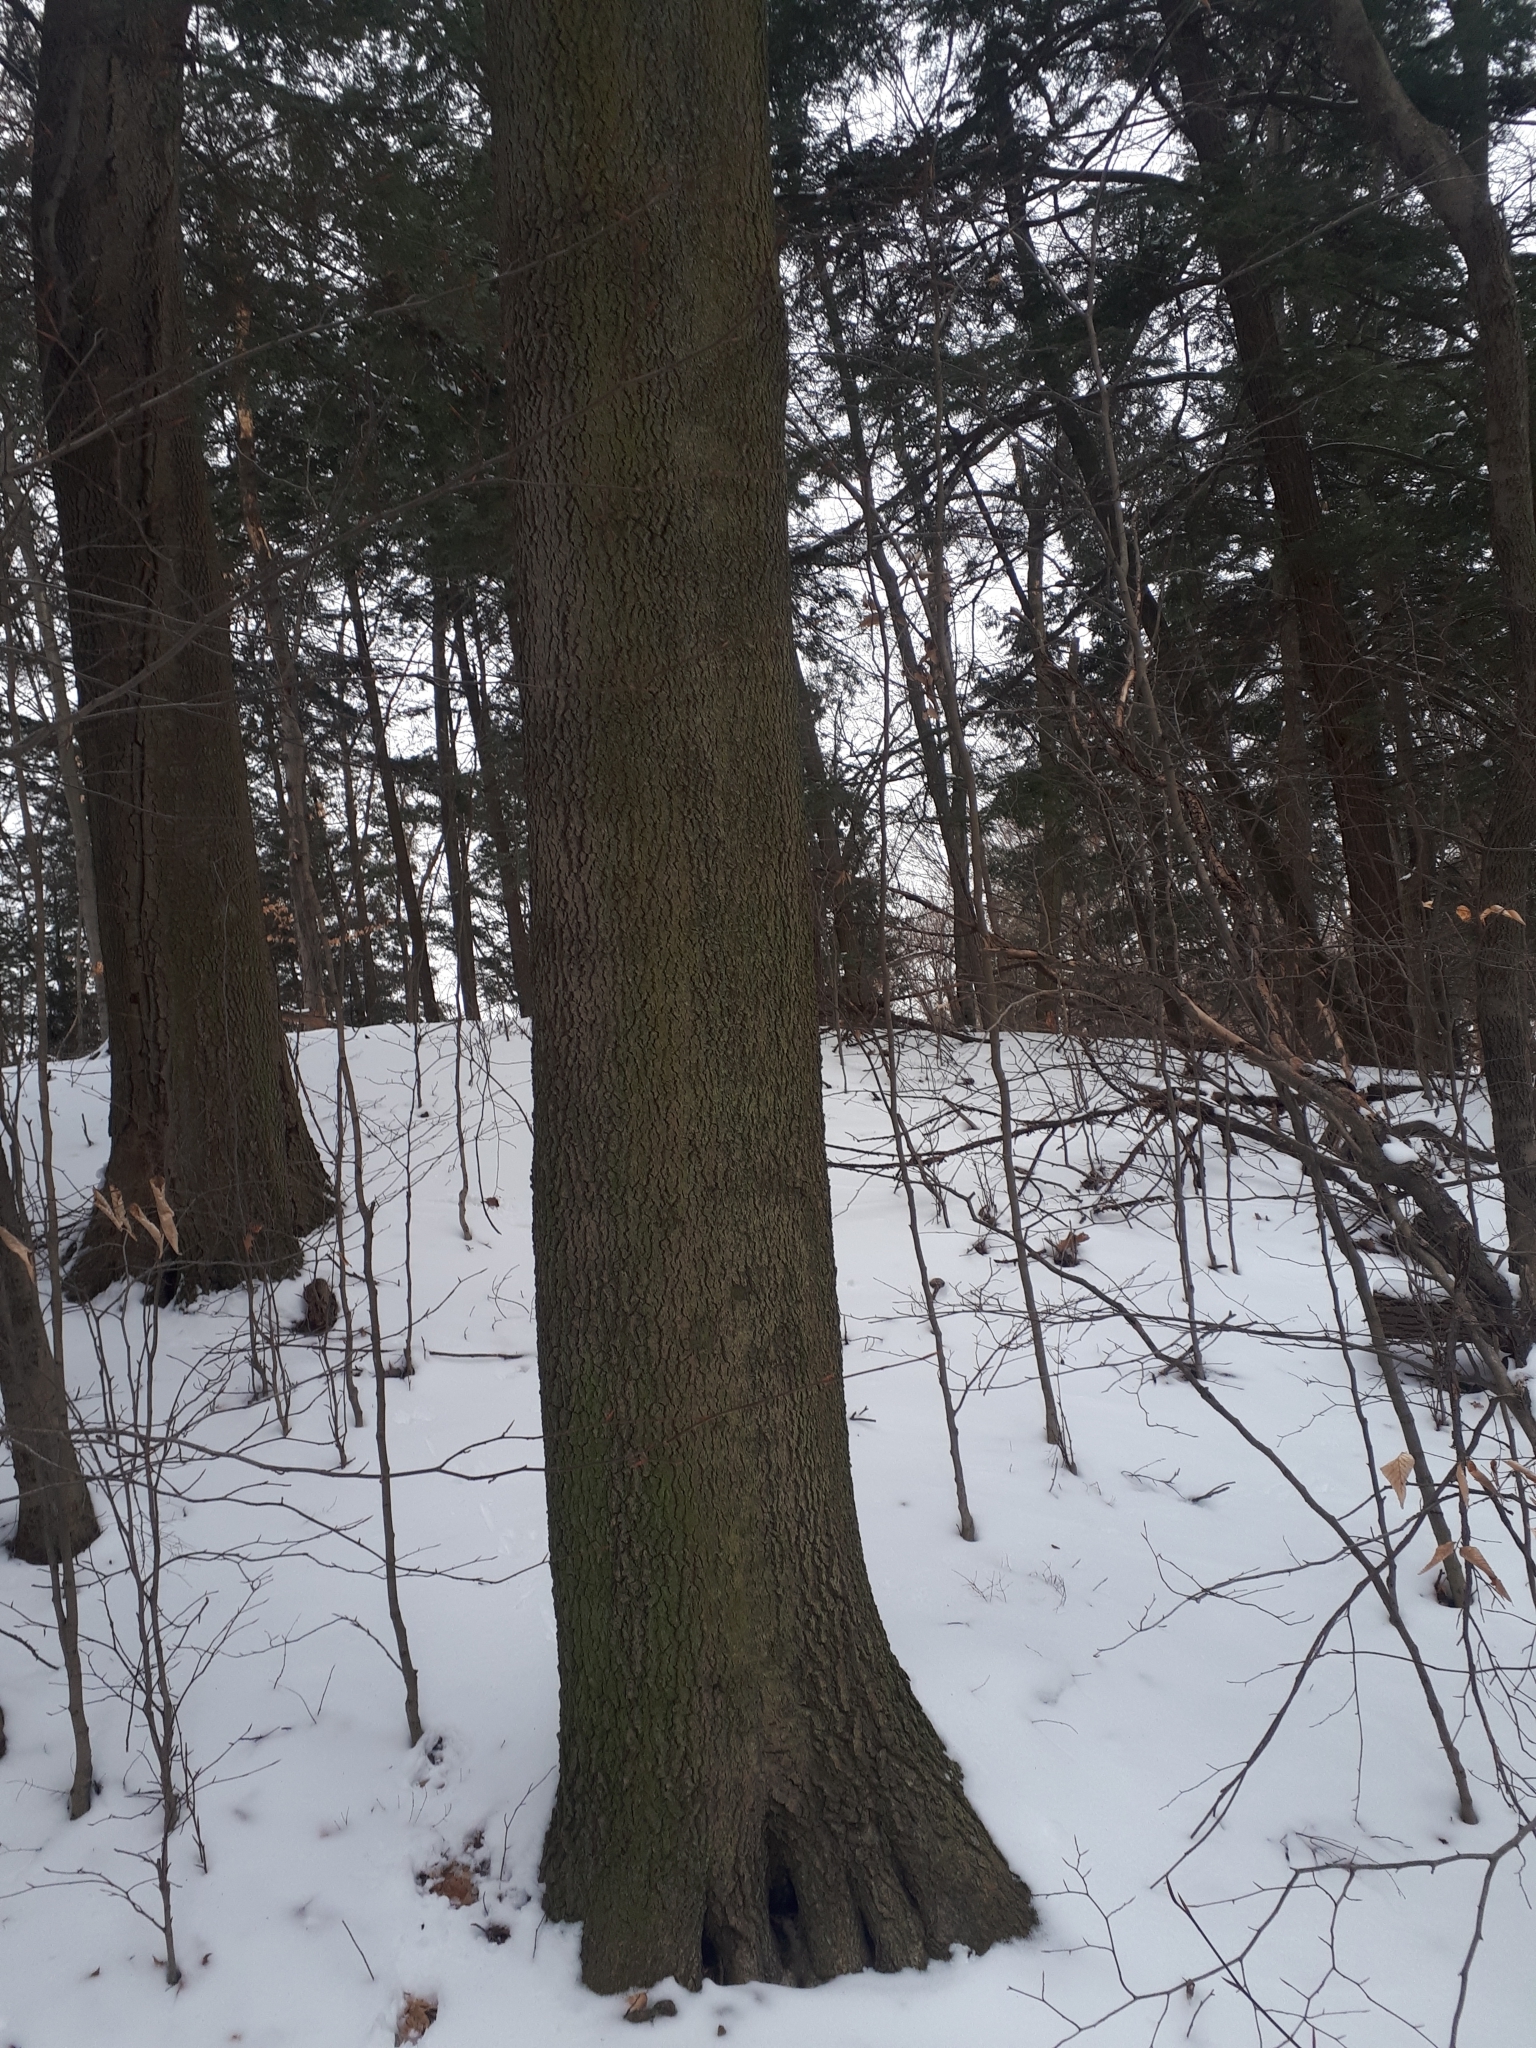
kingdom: Plantae
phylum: Tracheophyta
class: Magnoliopsida
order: Fagales
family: Juglandaceae
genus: Carya
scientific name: Carya cordiformis
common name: Bitternut hickory
